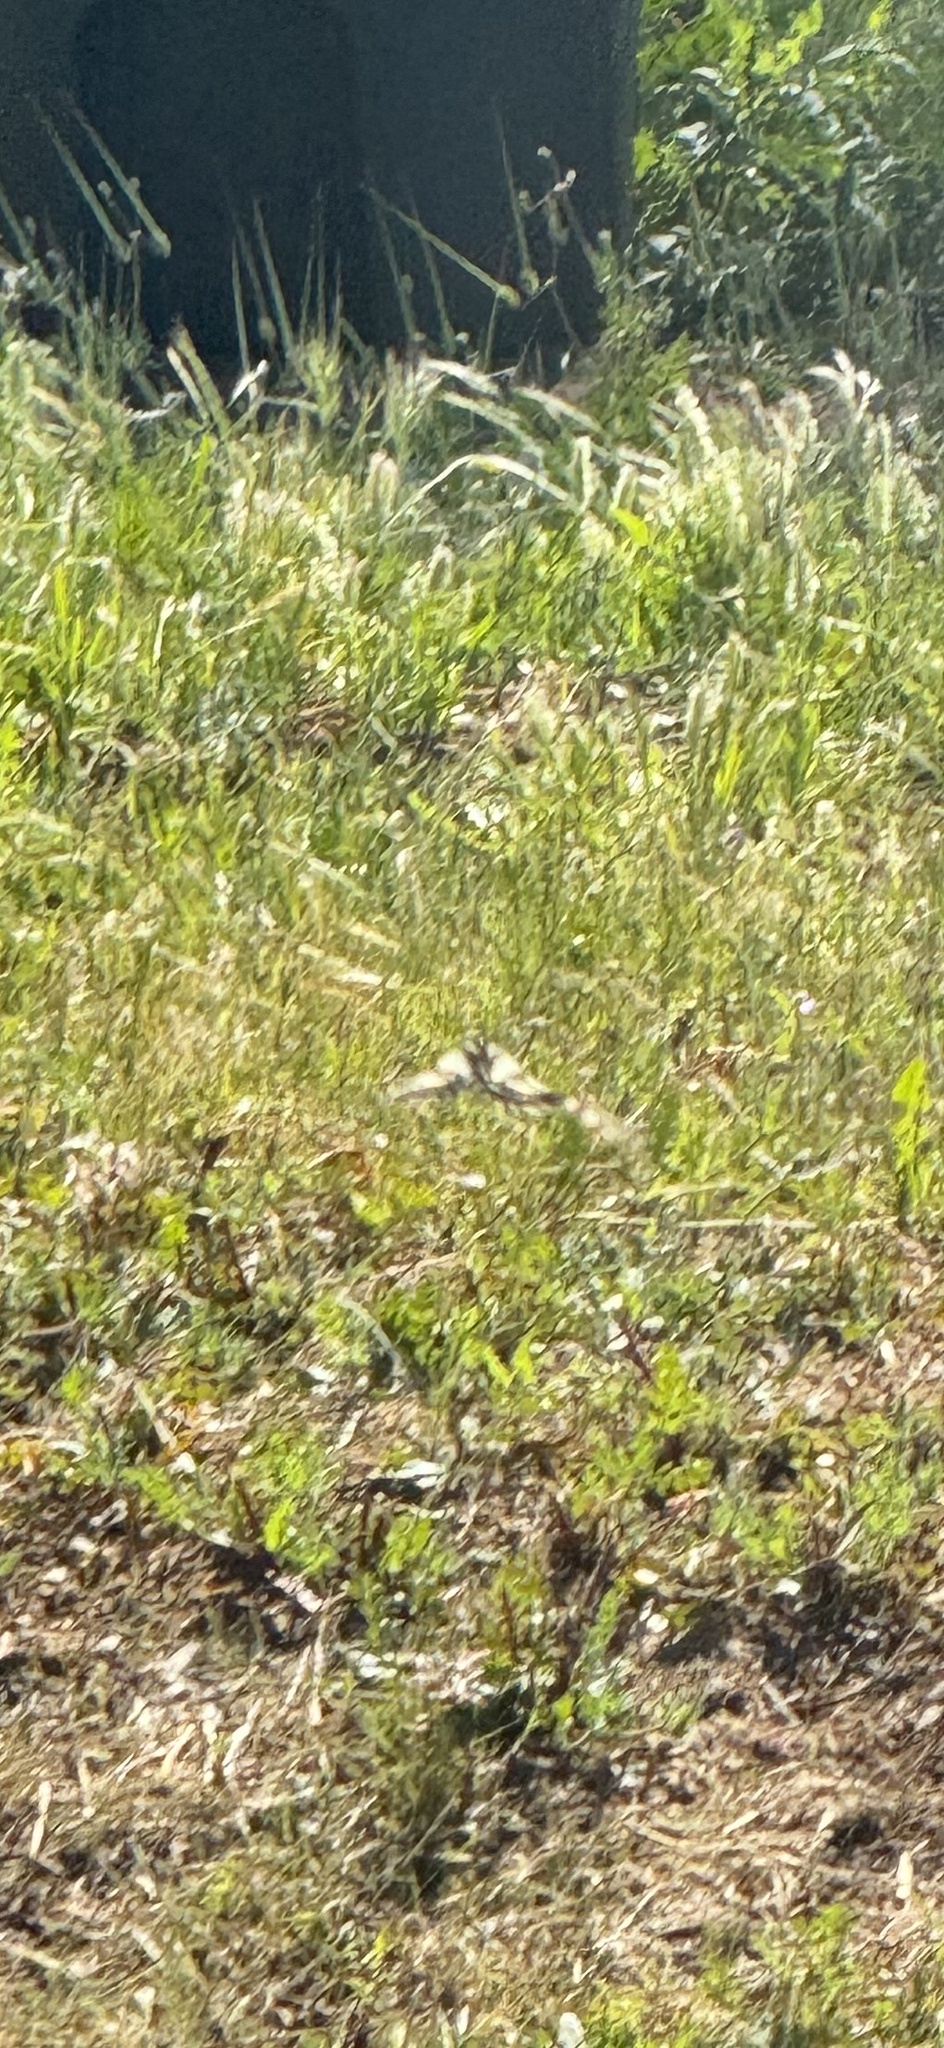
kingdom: Animalia
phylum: Arthropoda
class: Insecta
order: Lepidoptera
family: Papilionidae
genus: Papilio
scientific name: Papilio eurymedon
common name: Pale tiger swallowtail
